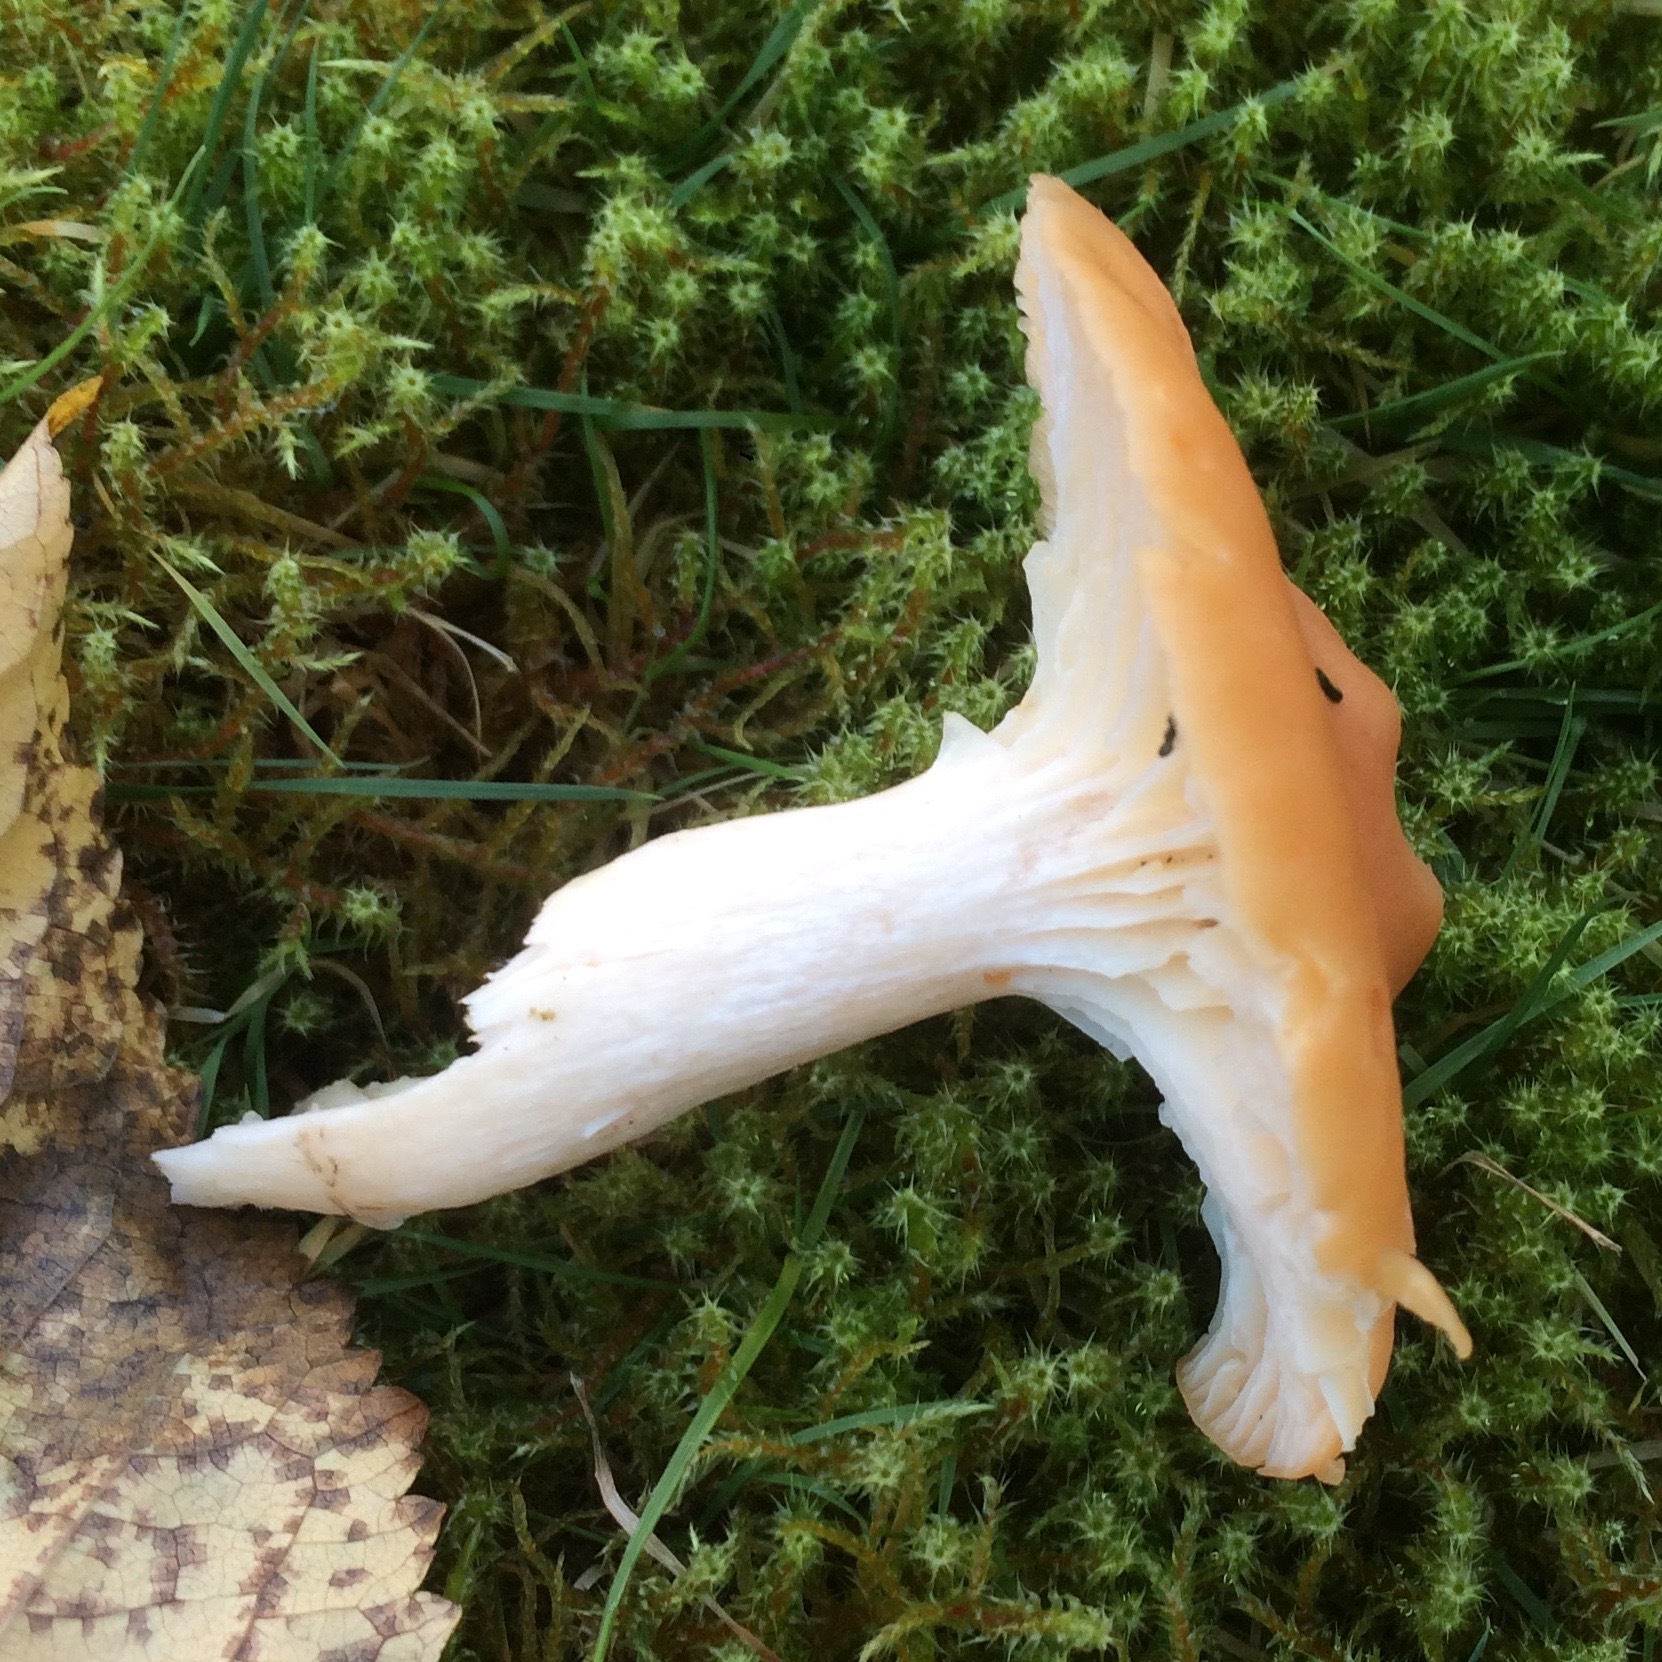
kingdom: Fungi
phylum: Basidiomycota
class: Agaricomycetes
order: Agaricales
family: Hygrophoraceae
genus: Cuphophyllus
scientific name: Cuphophyllus pratensis
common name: Meadow waxcap
